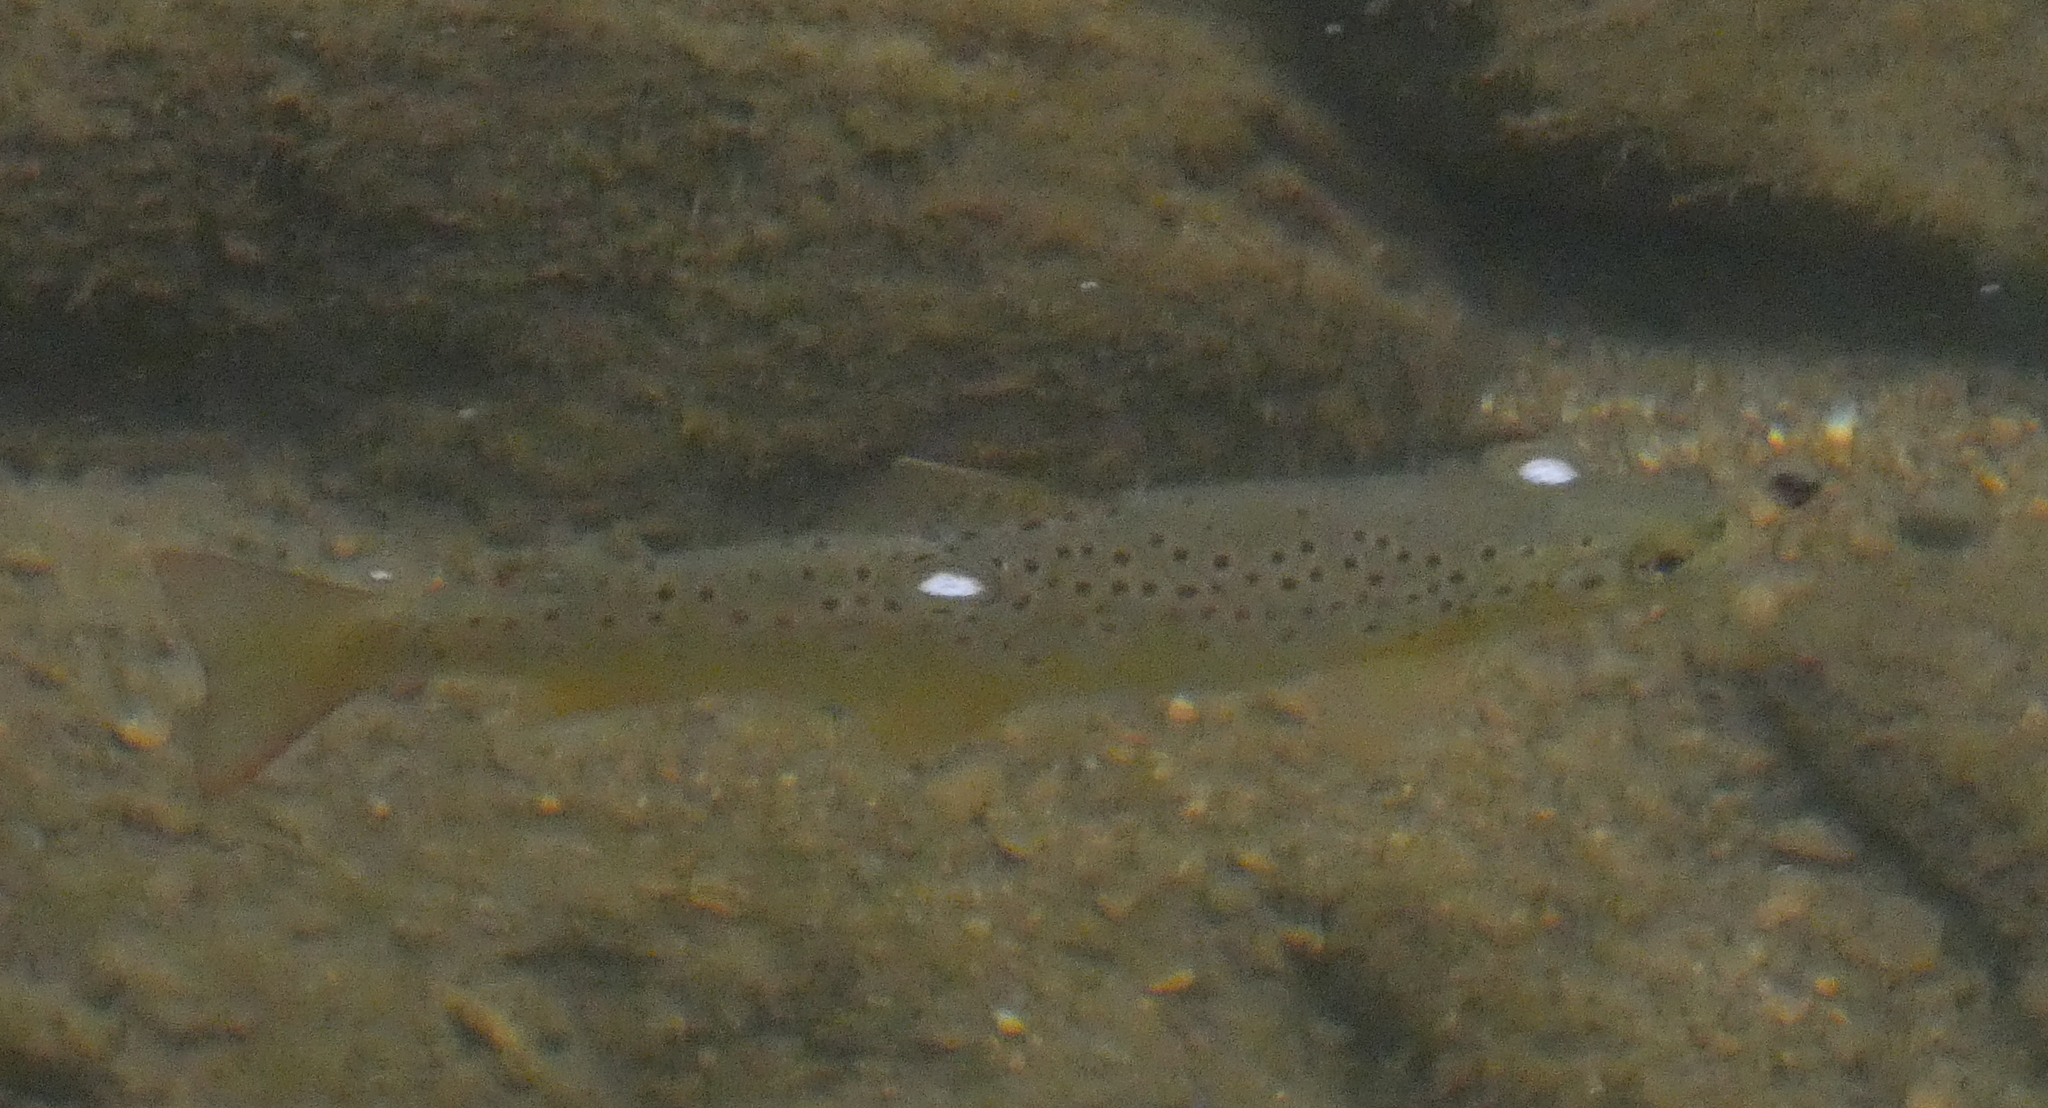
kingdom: Animalia
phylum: Chordata
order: Salmoniformes
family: Salmonidae
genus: Salmo
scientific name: Salmo trutta
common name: Brown trout
